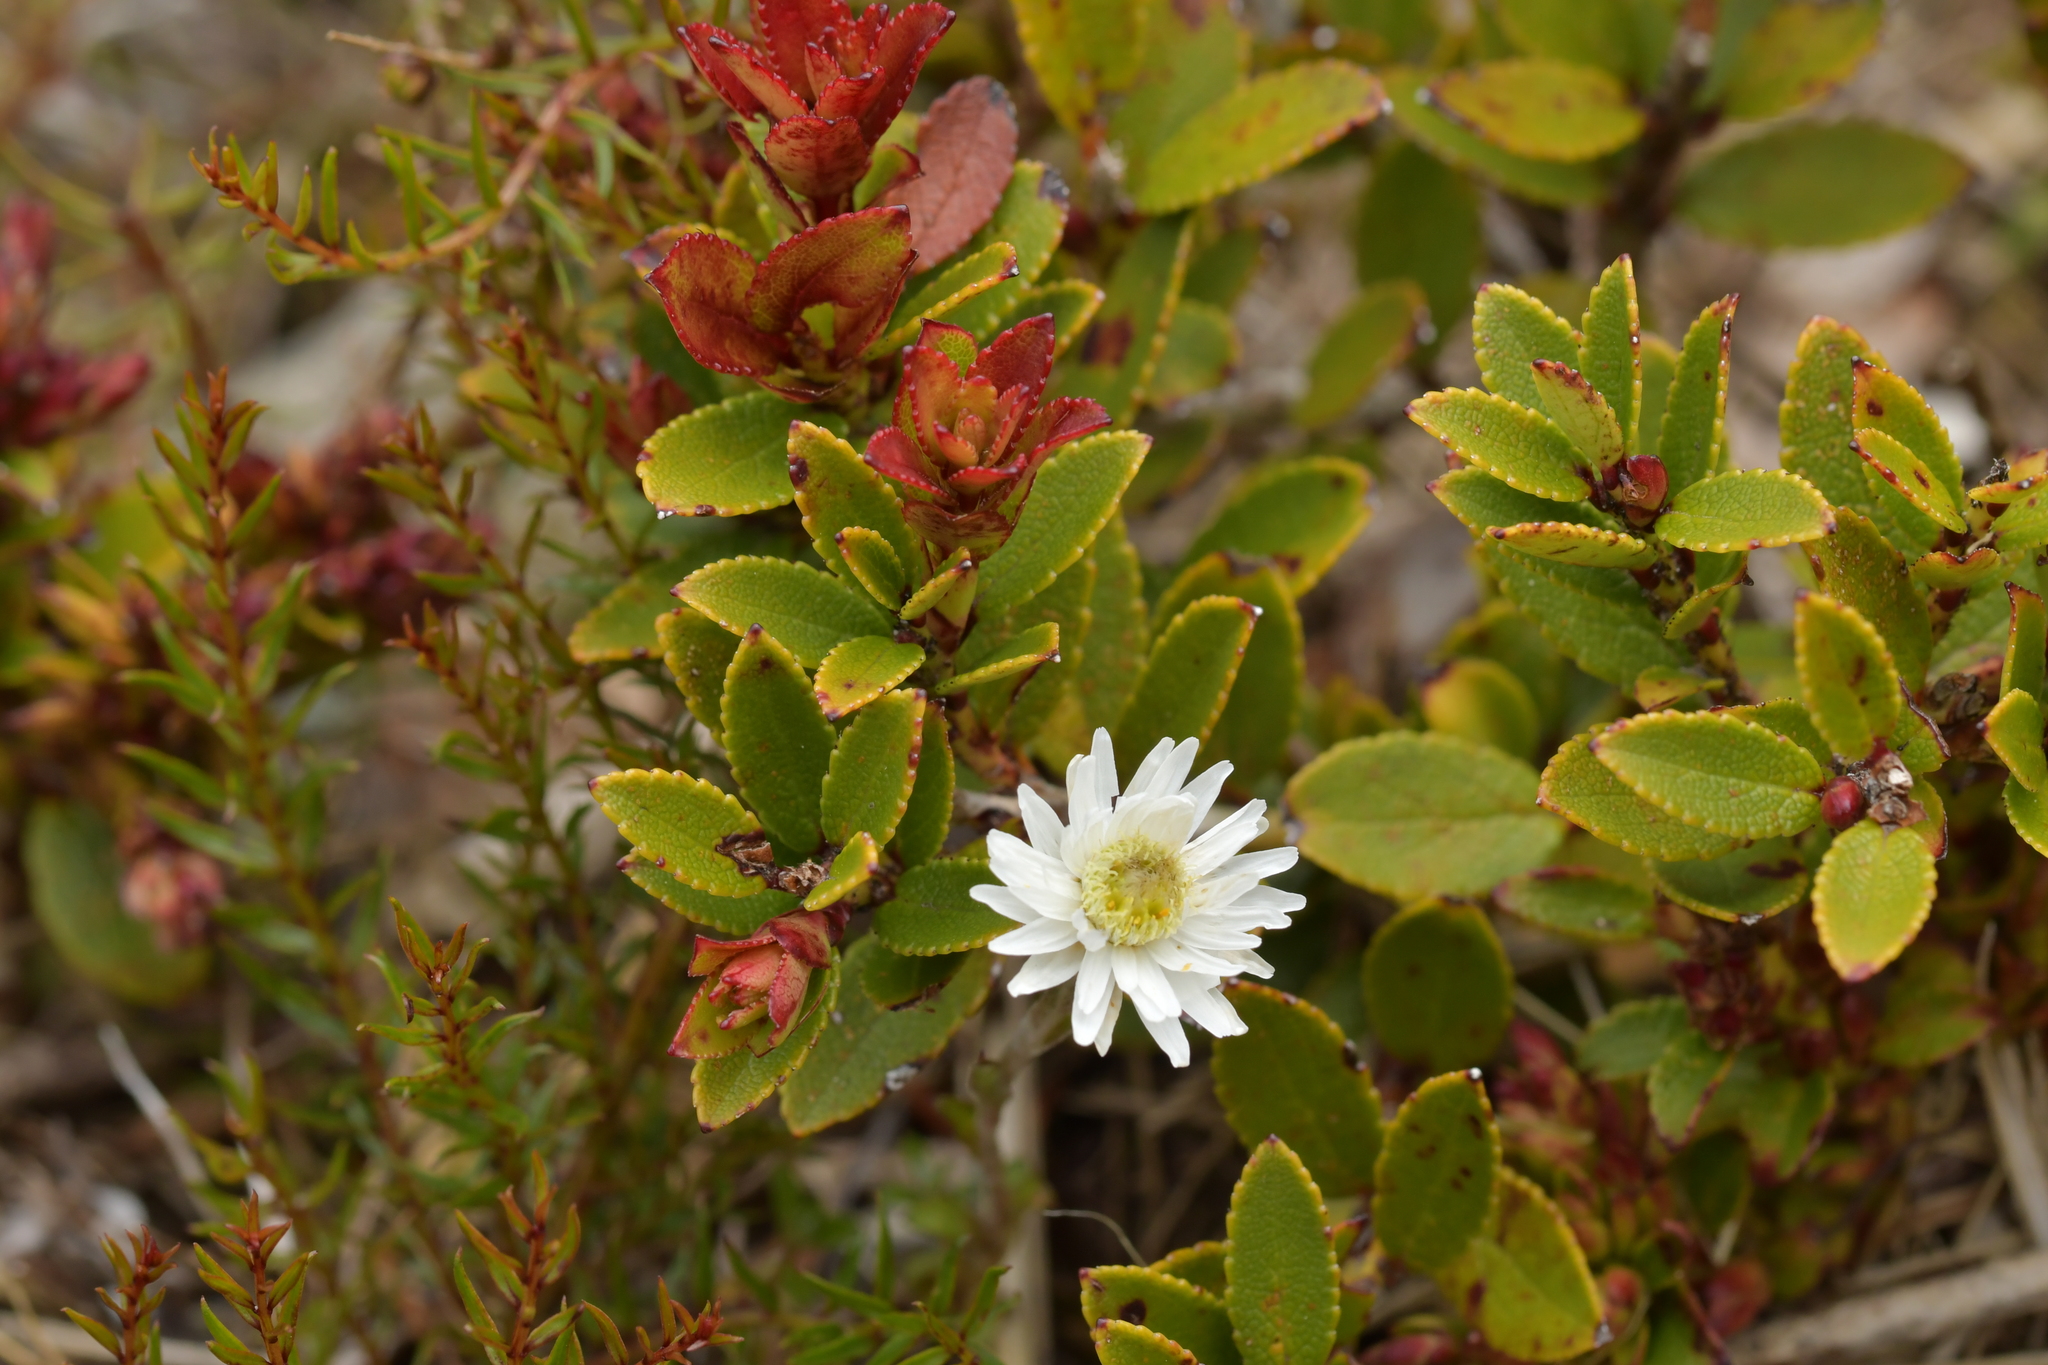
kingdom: Plantae
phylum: Tracheophyta
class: Magnoliopsida
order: Asterales
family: Asteraceae
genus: Anaphalioides
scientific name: Anaphalioides bellidioides
